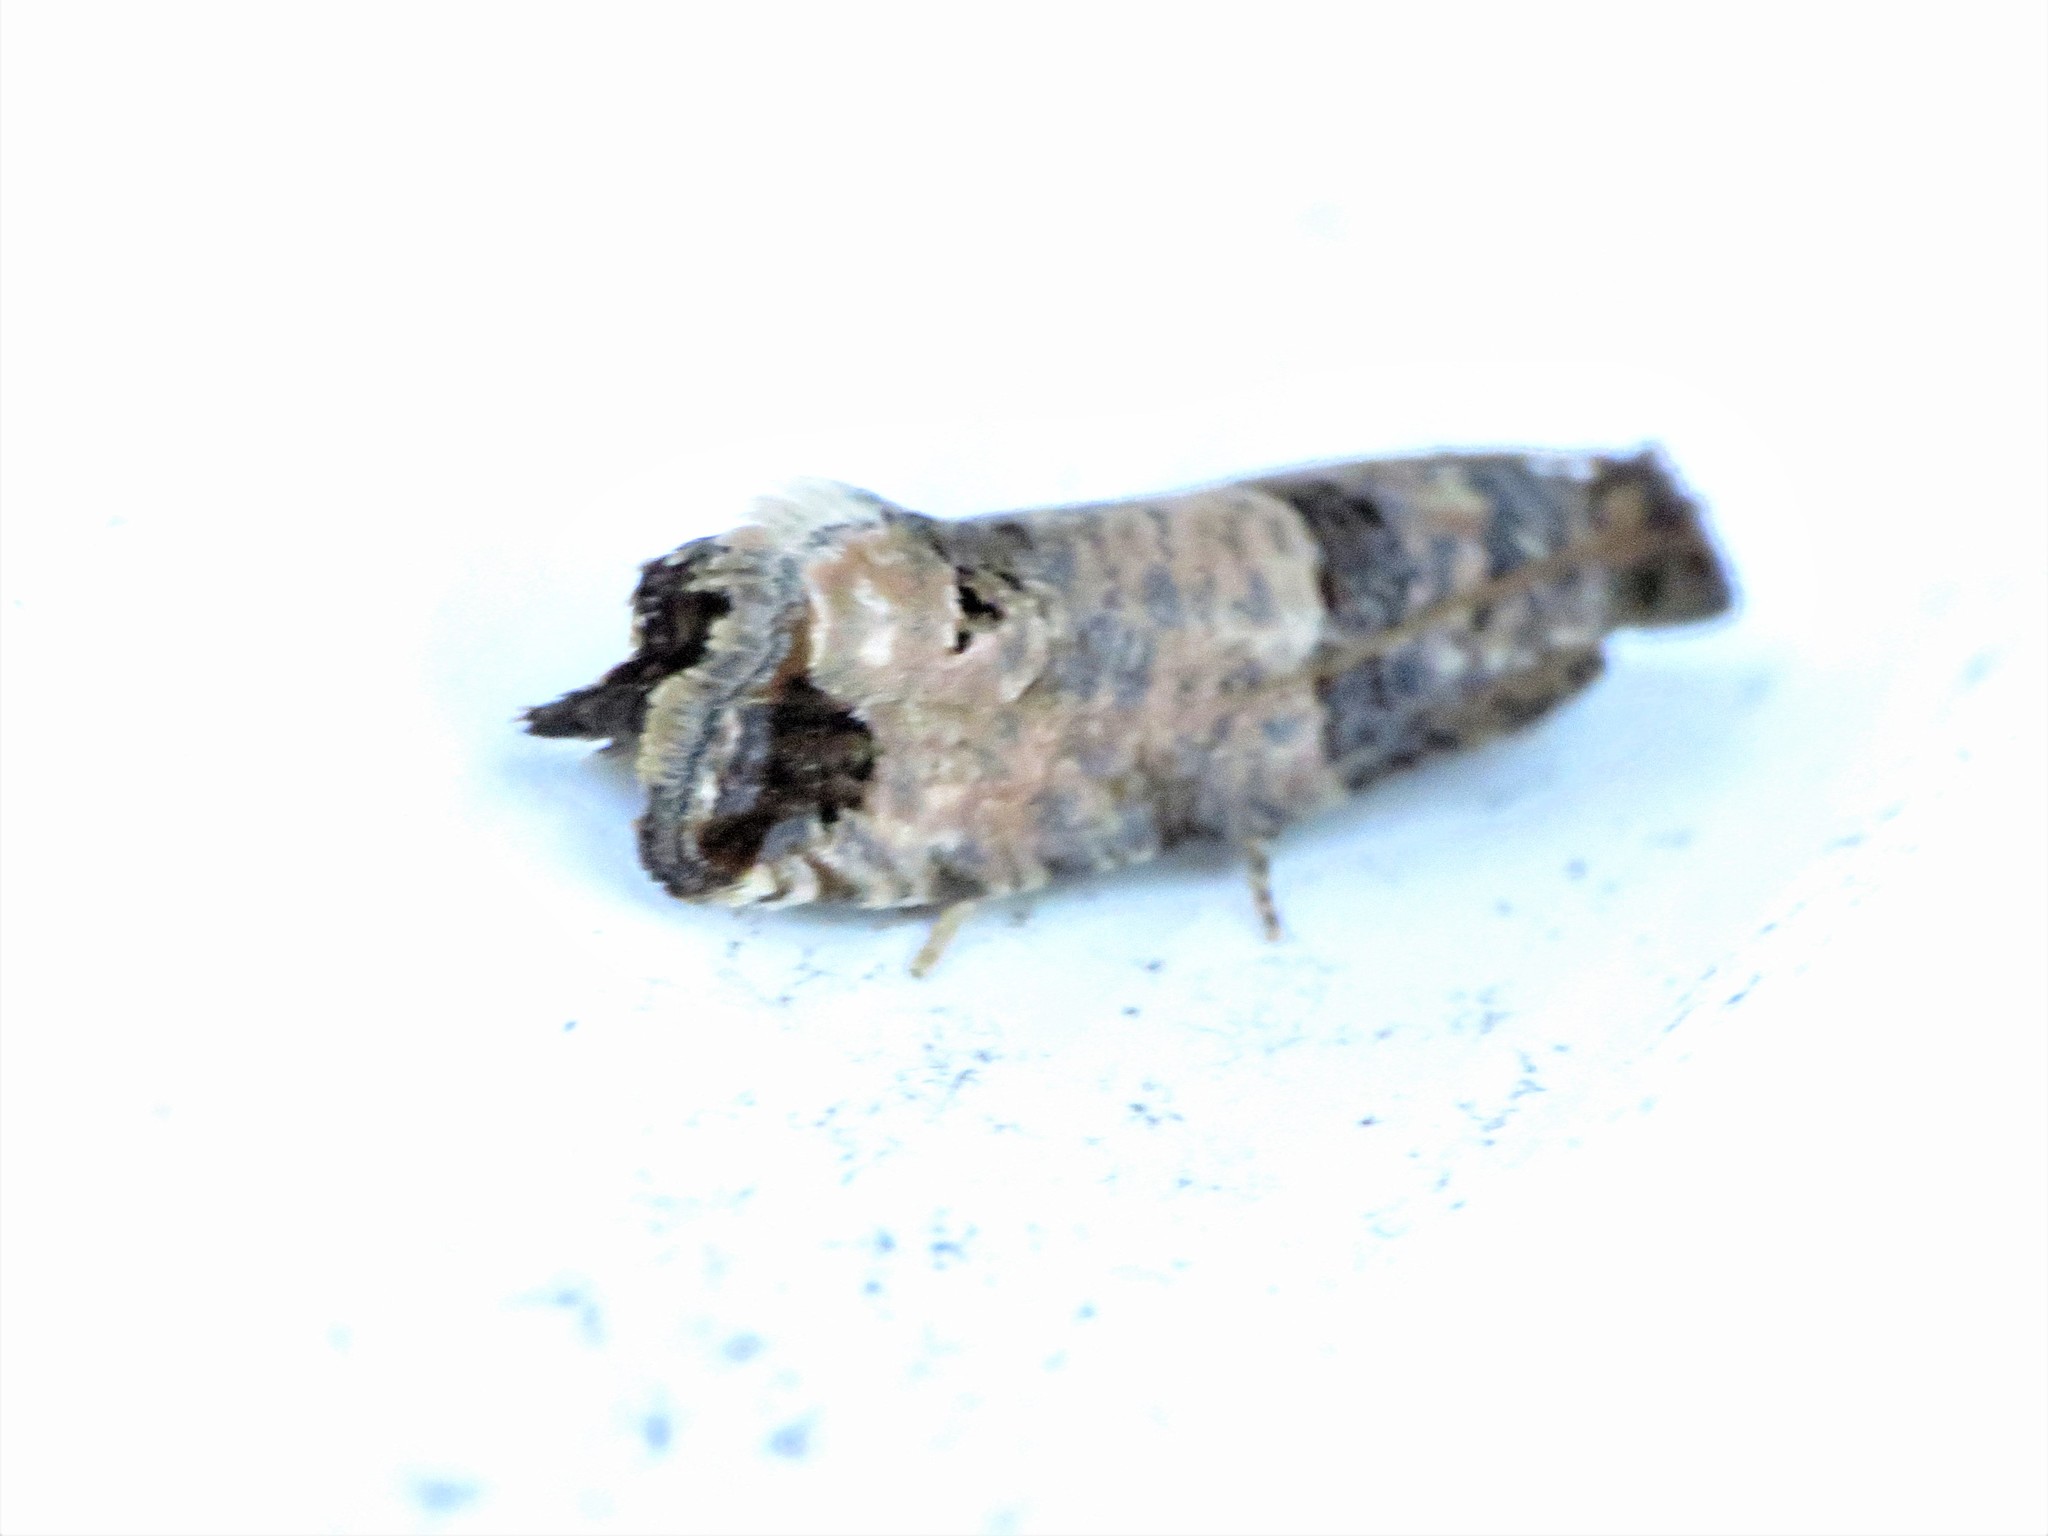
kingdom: Animalia
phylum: Arthropoda
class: Insecta
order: Lepidoptera
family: Tortricidae
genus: Notocelia
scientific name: Notocelia culminana
